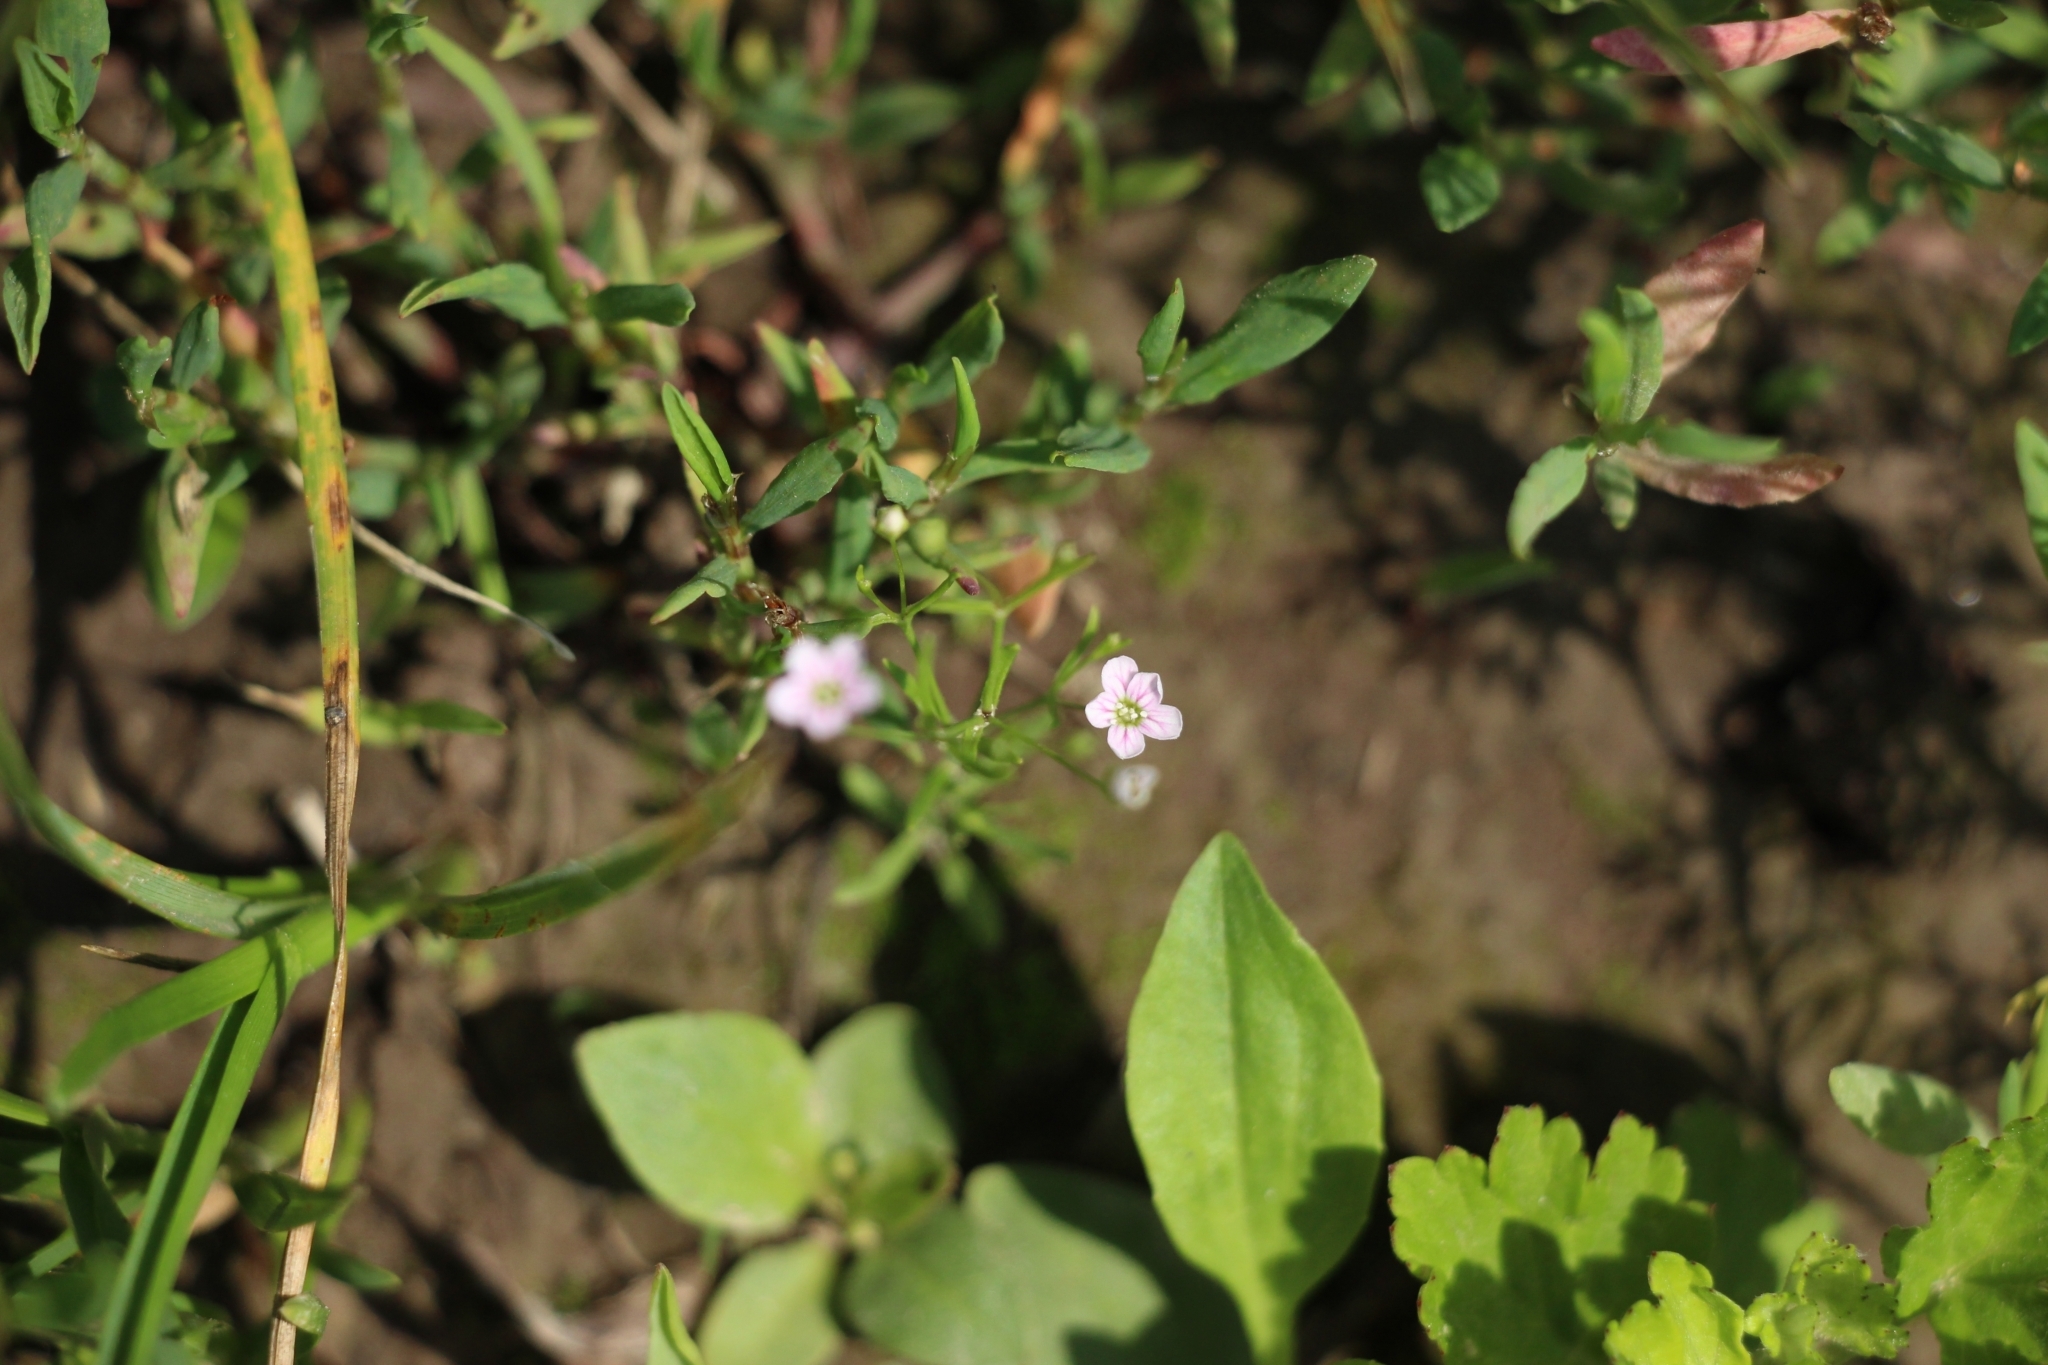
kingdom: Plantae
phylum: Tracheophyta
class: Magnoliopsida
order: Caryophyllales
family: Caryophyllaceae
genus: Psammophiliella
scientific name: Psammophiliella muralis
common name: Cushion baby's-breath
